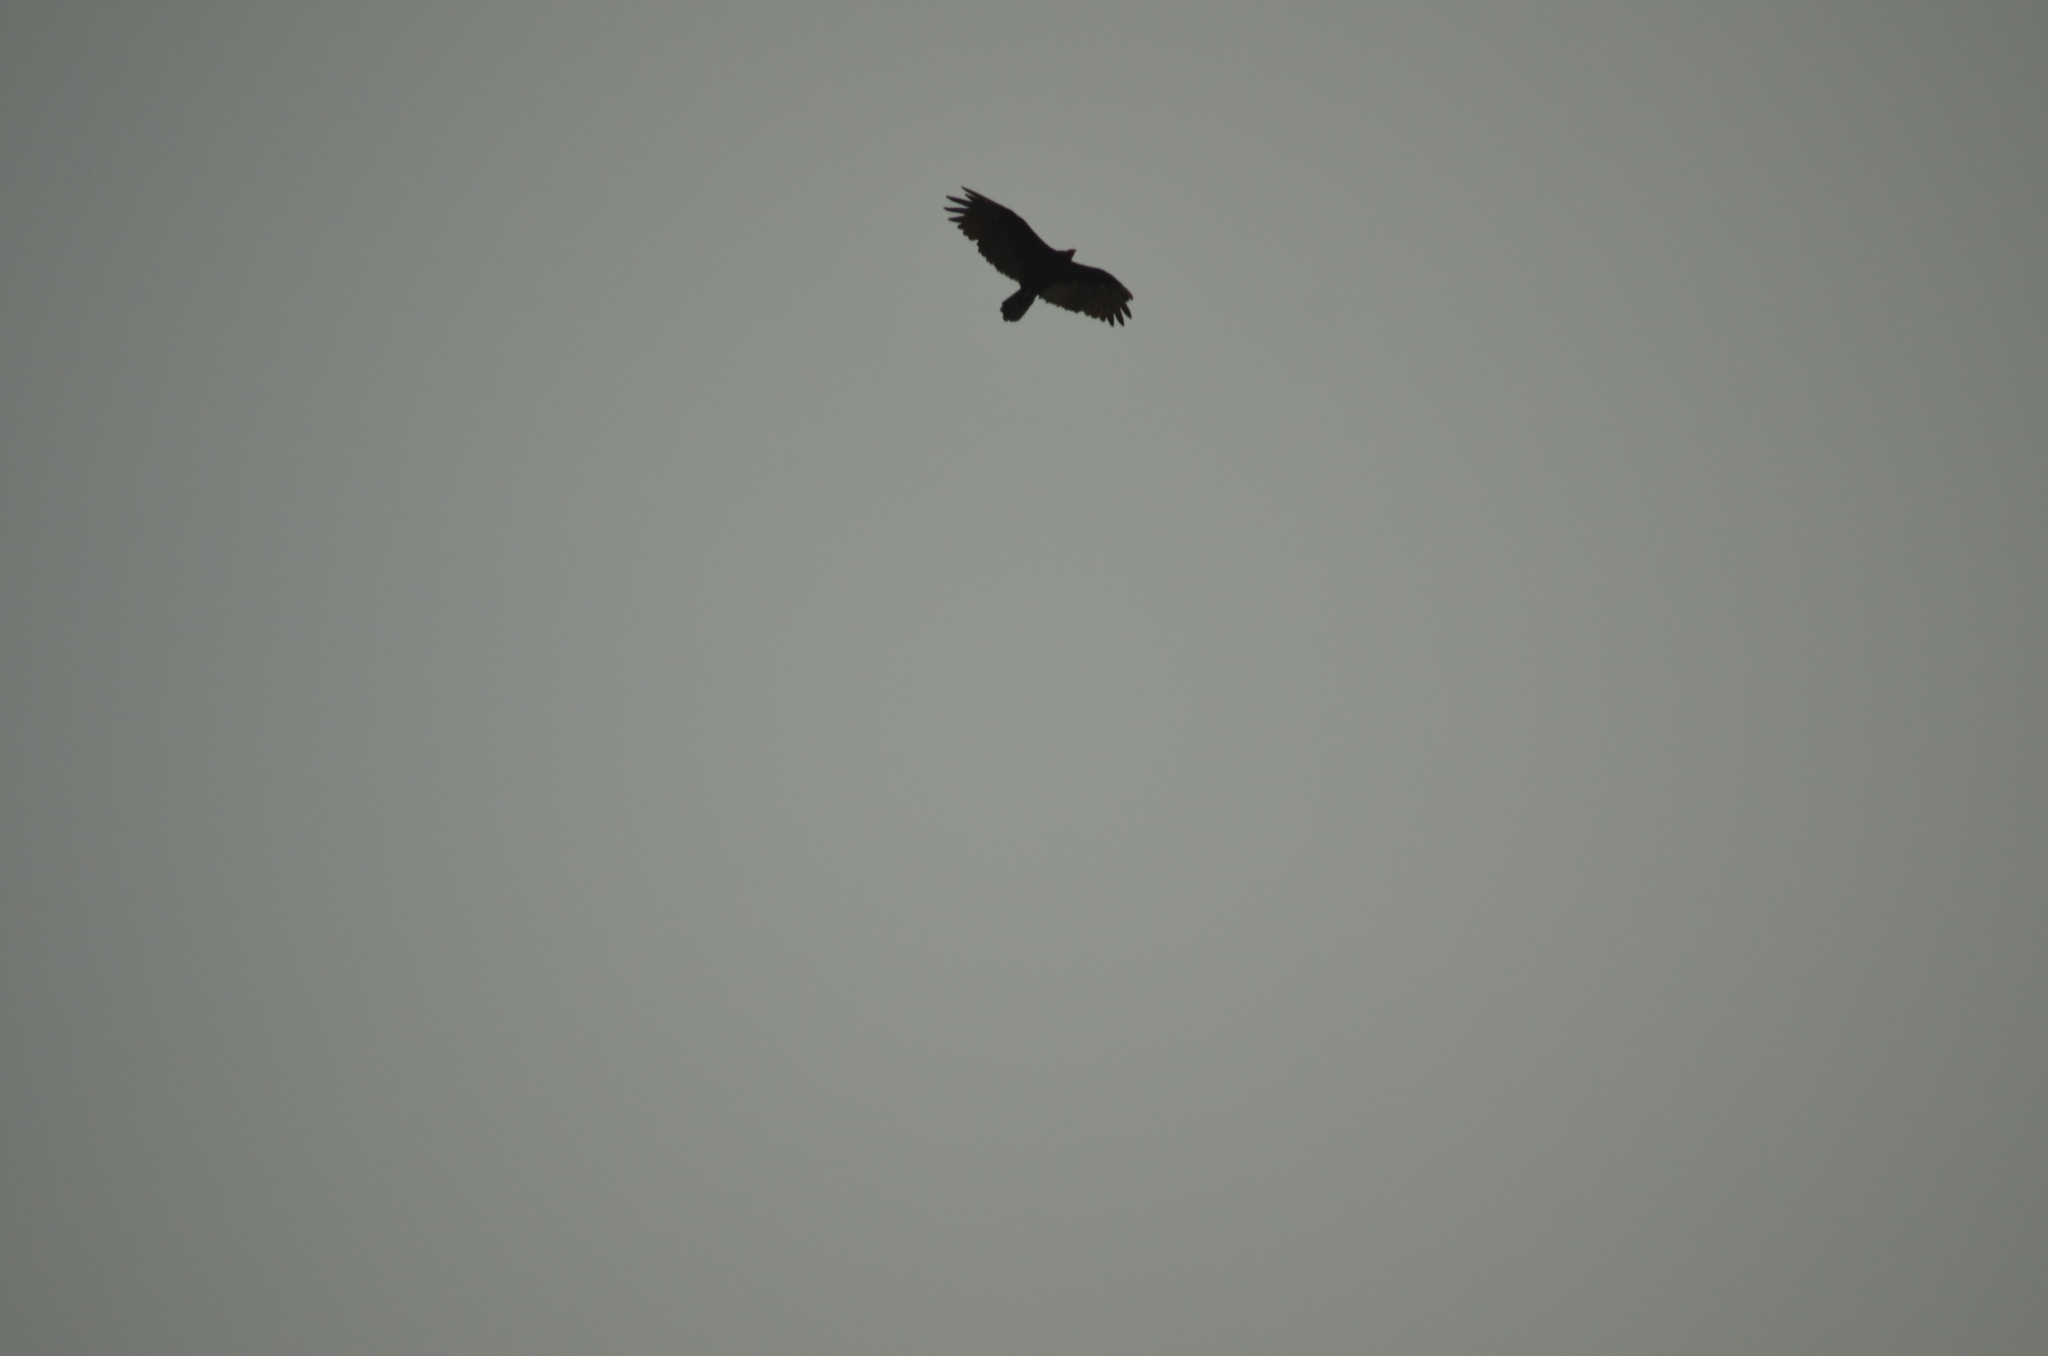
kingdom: Animalia
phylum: Chordata
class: Aves
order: Accipitriformes
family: Cathartidae
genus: Cathartes
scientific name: Cathartes aura
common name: Turkey vulture
